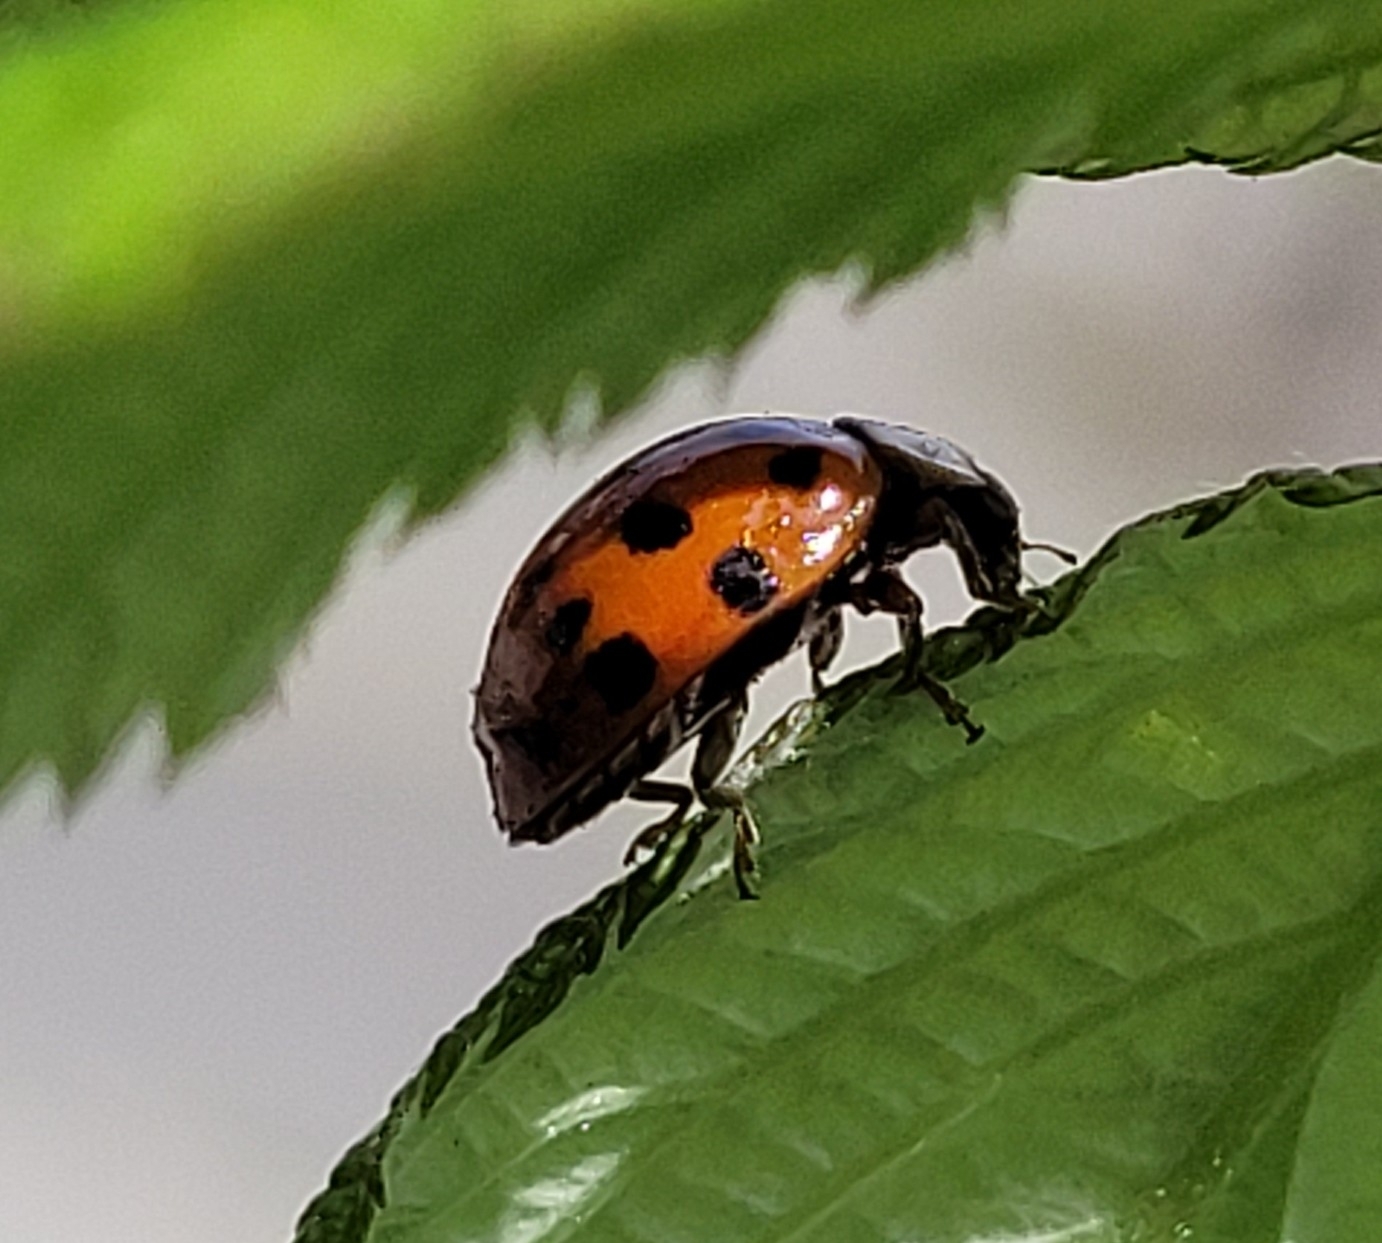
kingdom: Animalia
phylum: Arthropoda
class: Insecta
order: Coleoptera
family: Coccinellidae
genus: Harmonia
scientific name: Harmonia axyridis
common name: Harlequin ladybird
